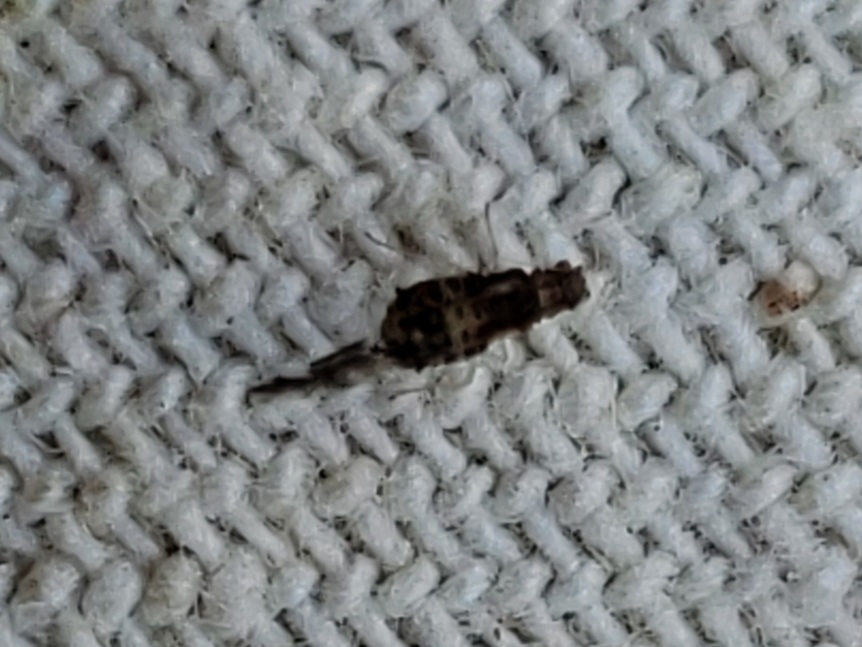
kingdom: Animalia
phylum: Arthropoda
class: Insecta
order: Hemiptera
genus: Neomyzocallis
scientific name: Neomyzocallis
